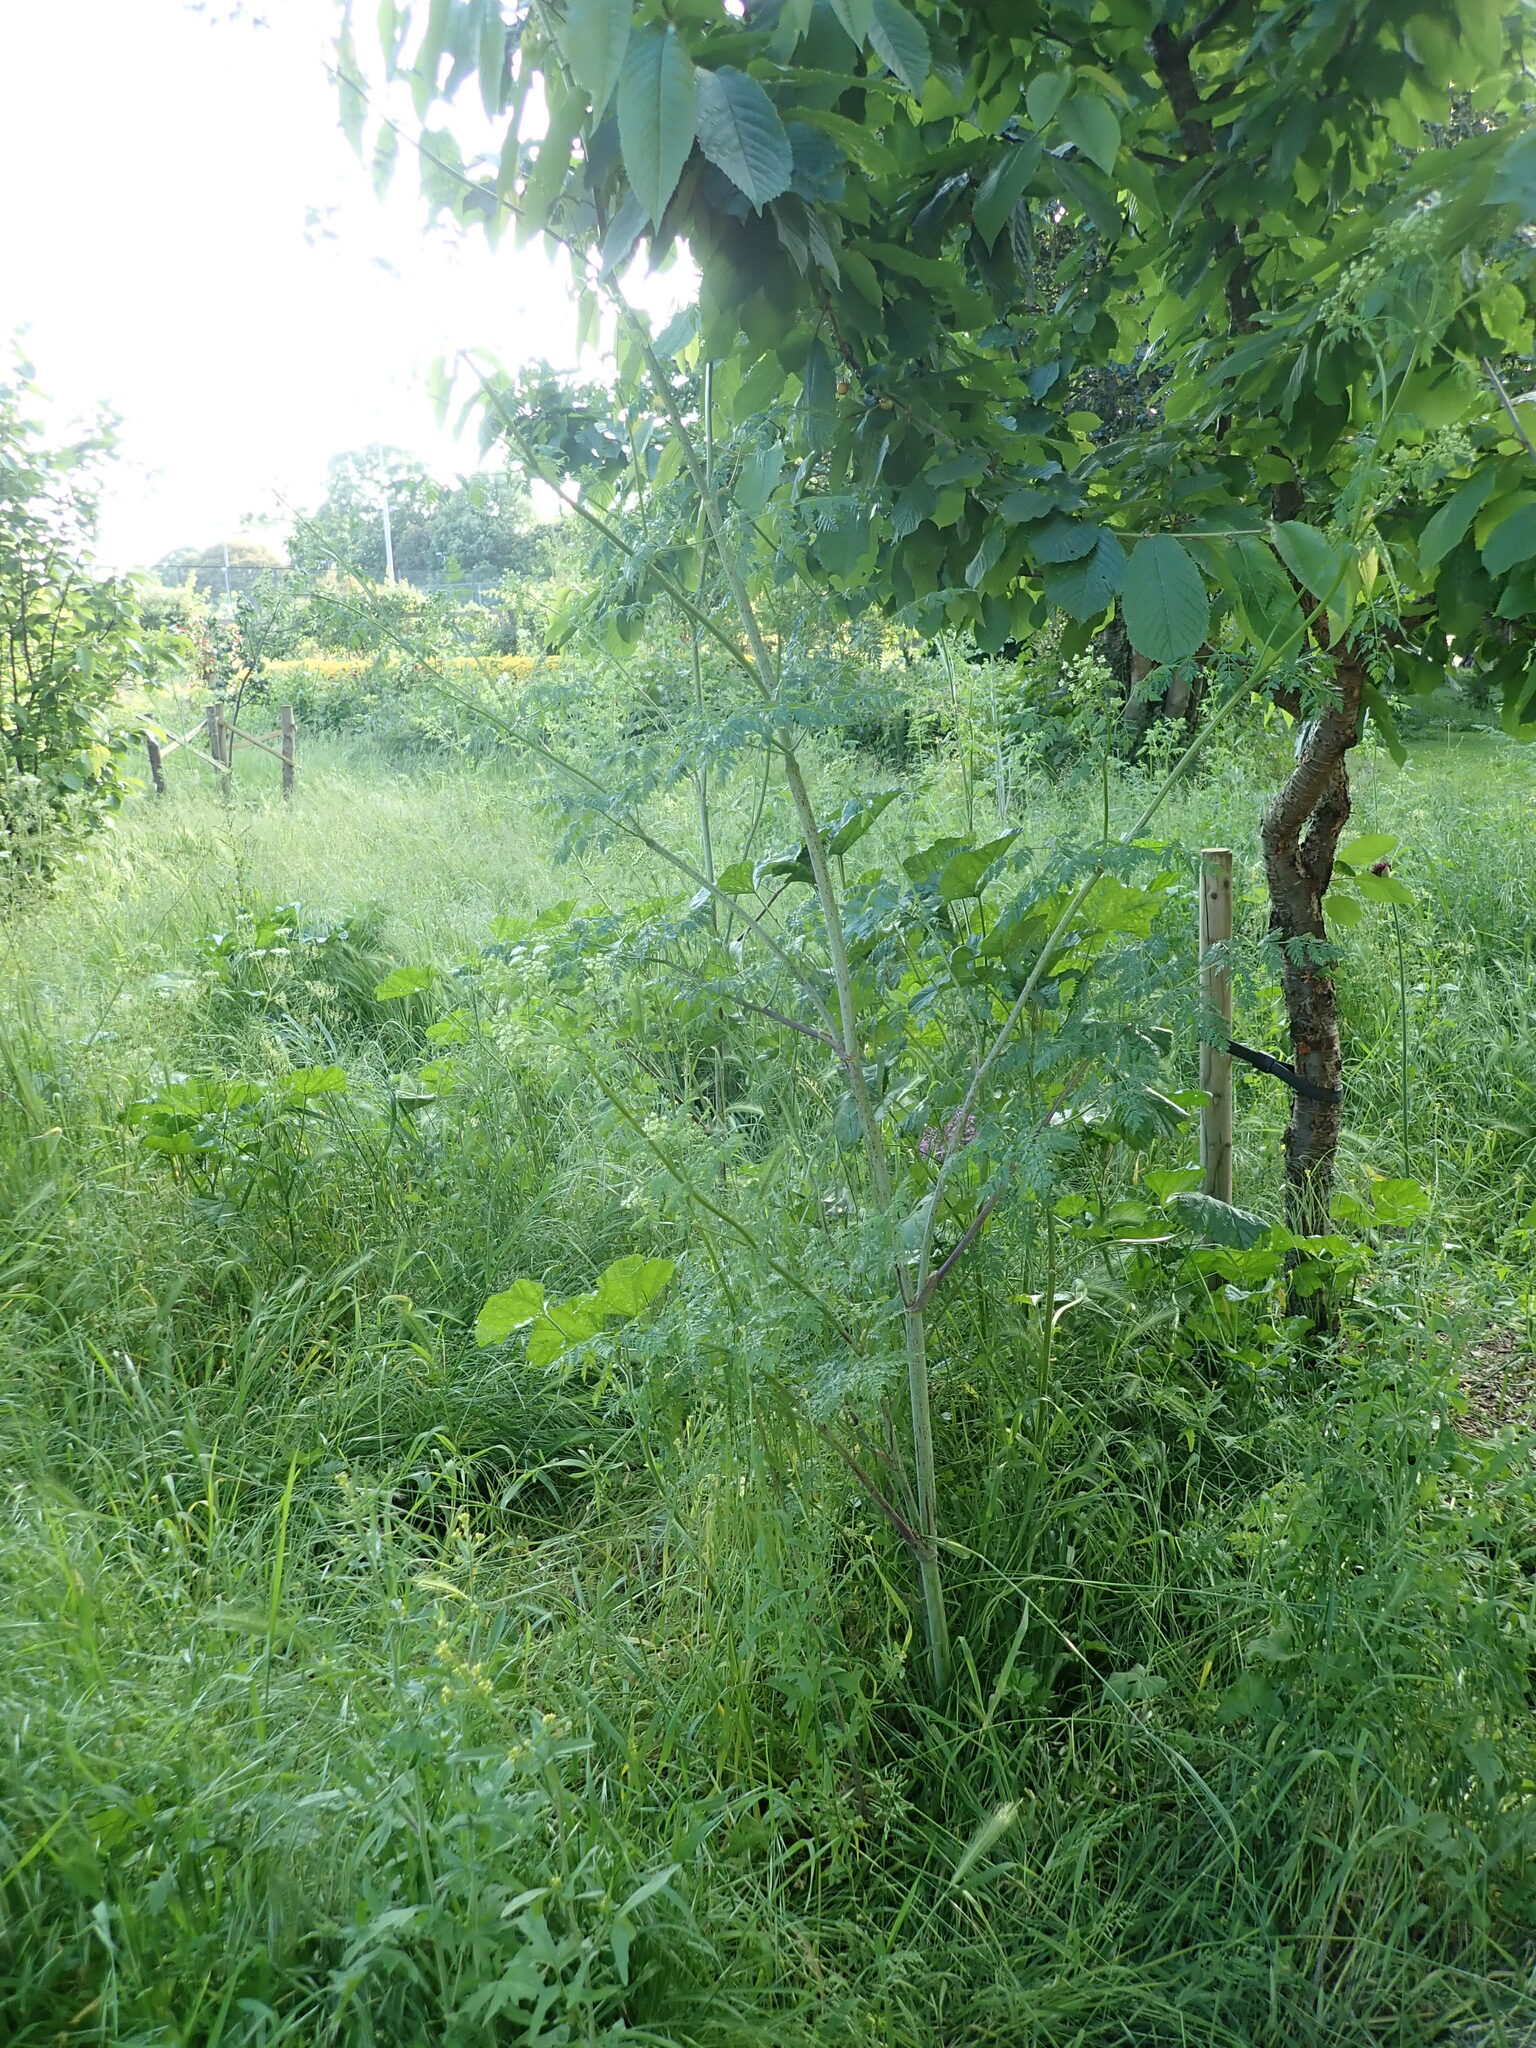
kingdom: Plantae
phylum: Tracheophyta
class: Magnoliopsida
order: Apiales
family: Apiaceae
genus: Conium
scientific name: Conium maculatum
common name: Hemlock
